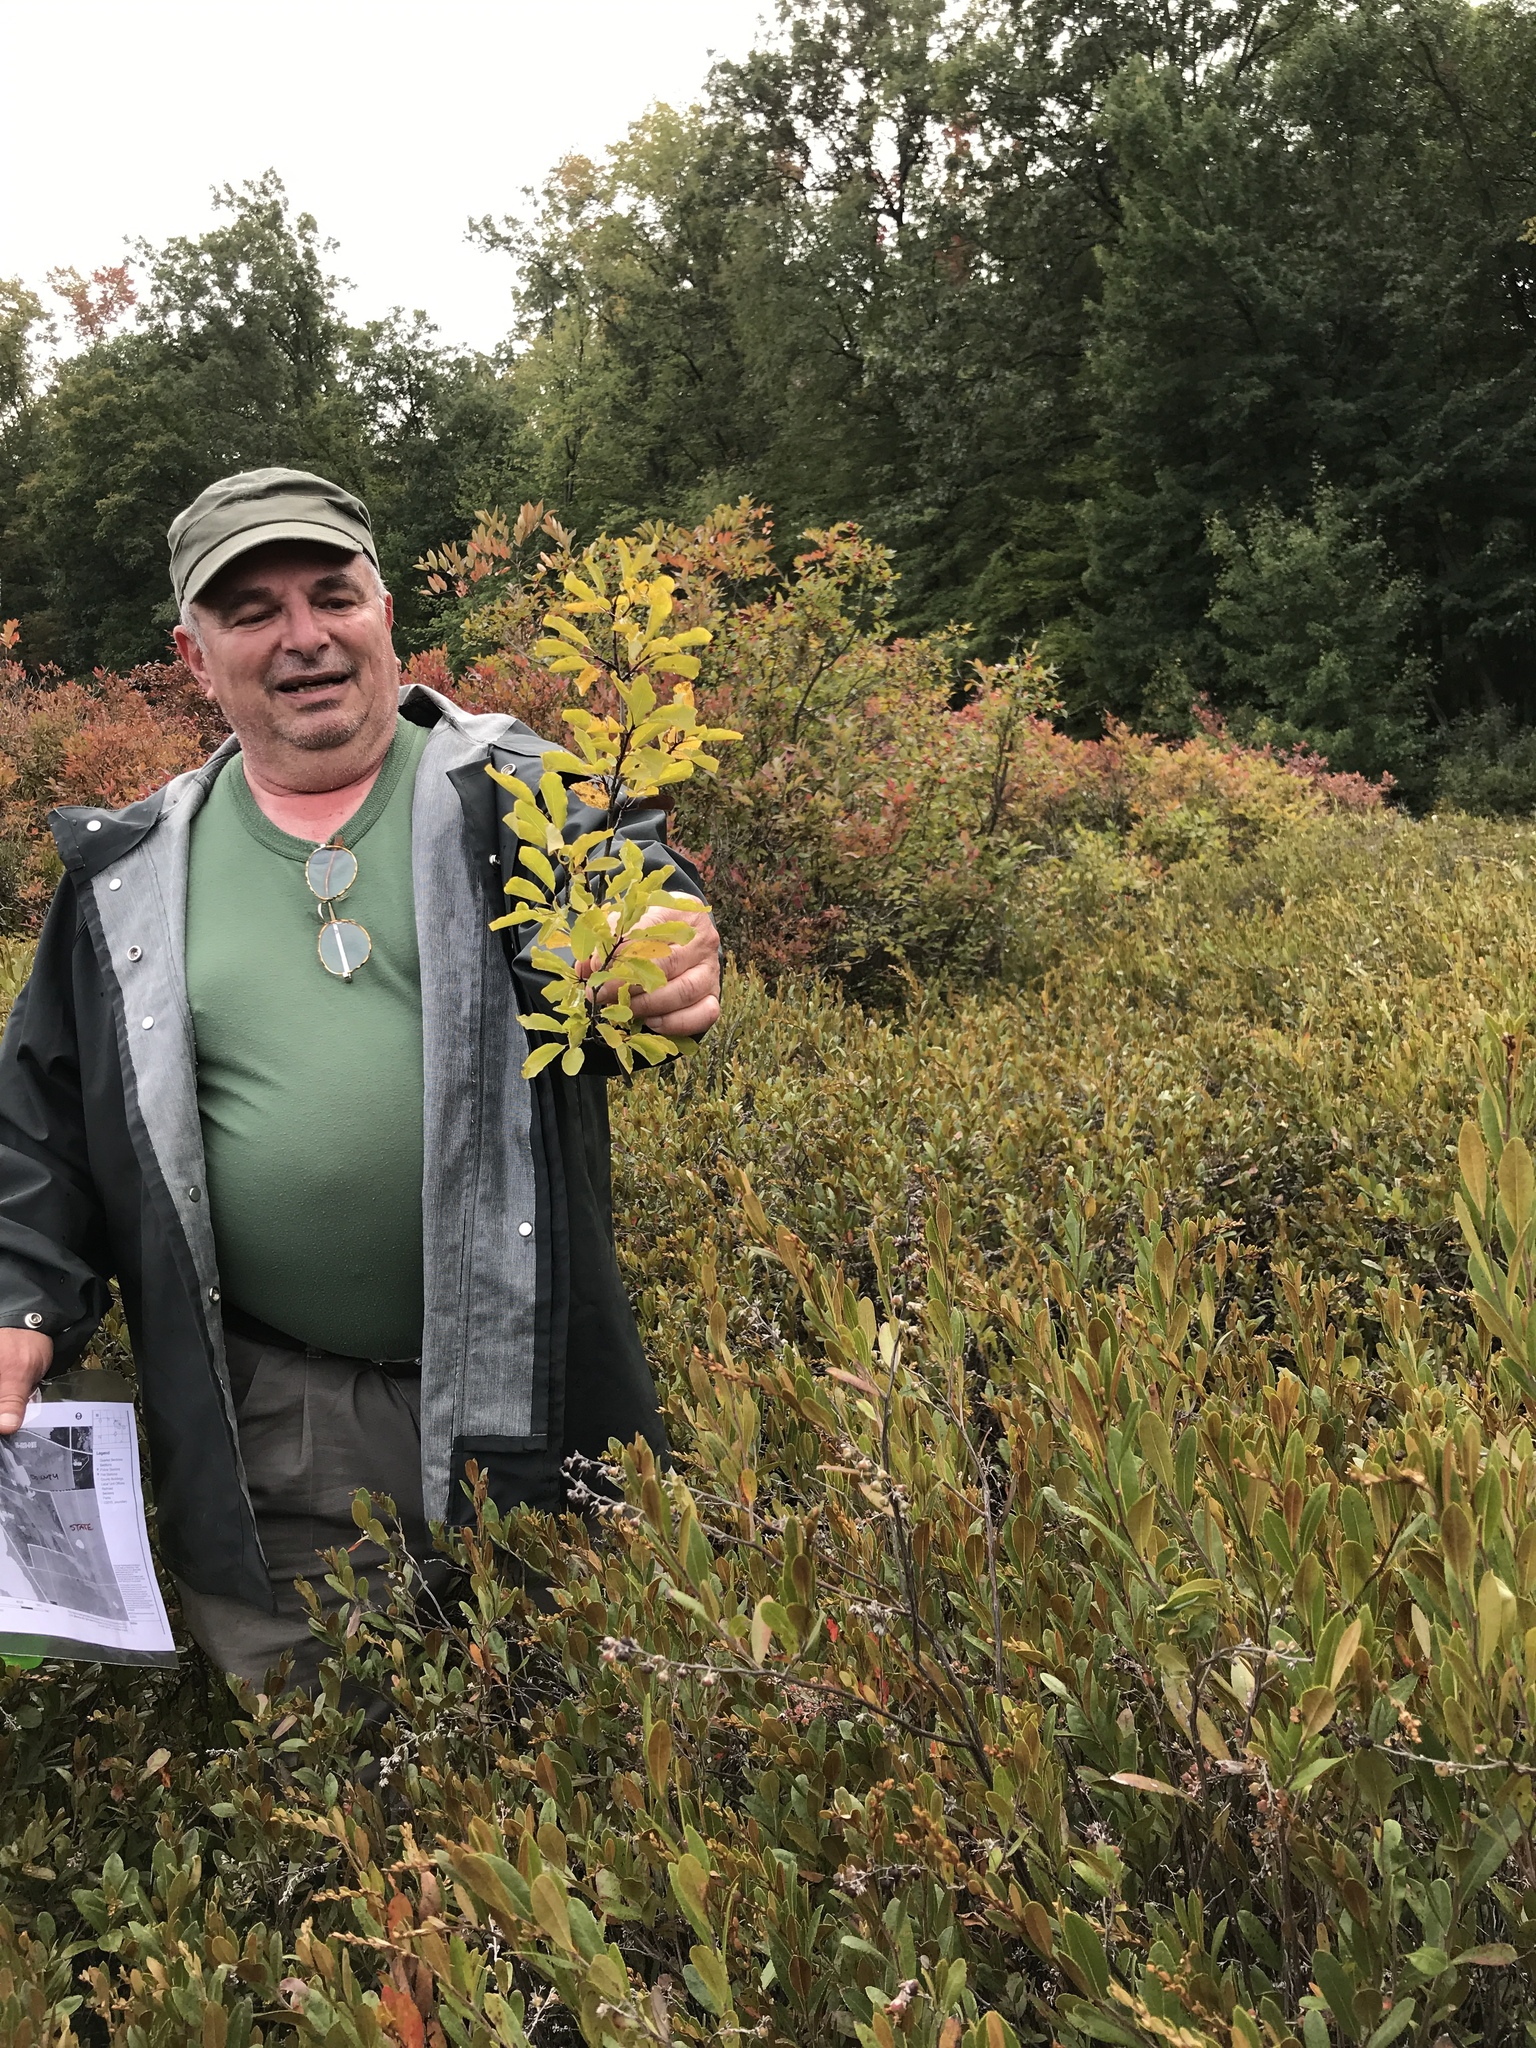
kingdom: Plantae
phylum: Tracheophyta
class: Magnoliopsida
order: Aquifoliales
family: Aquifoliaceae
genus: Ilex
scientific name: Ilex mucronata
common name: Catberry
